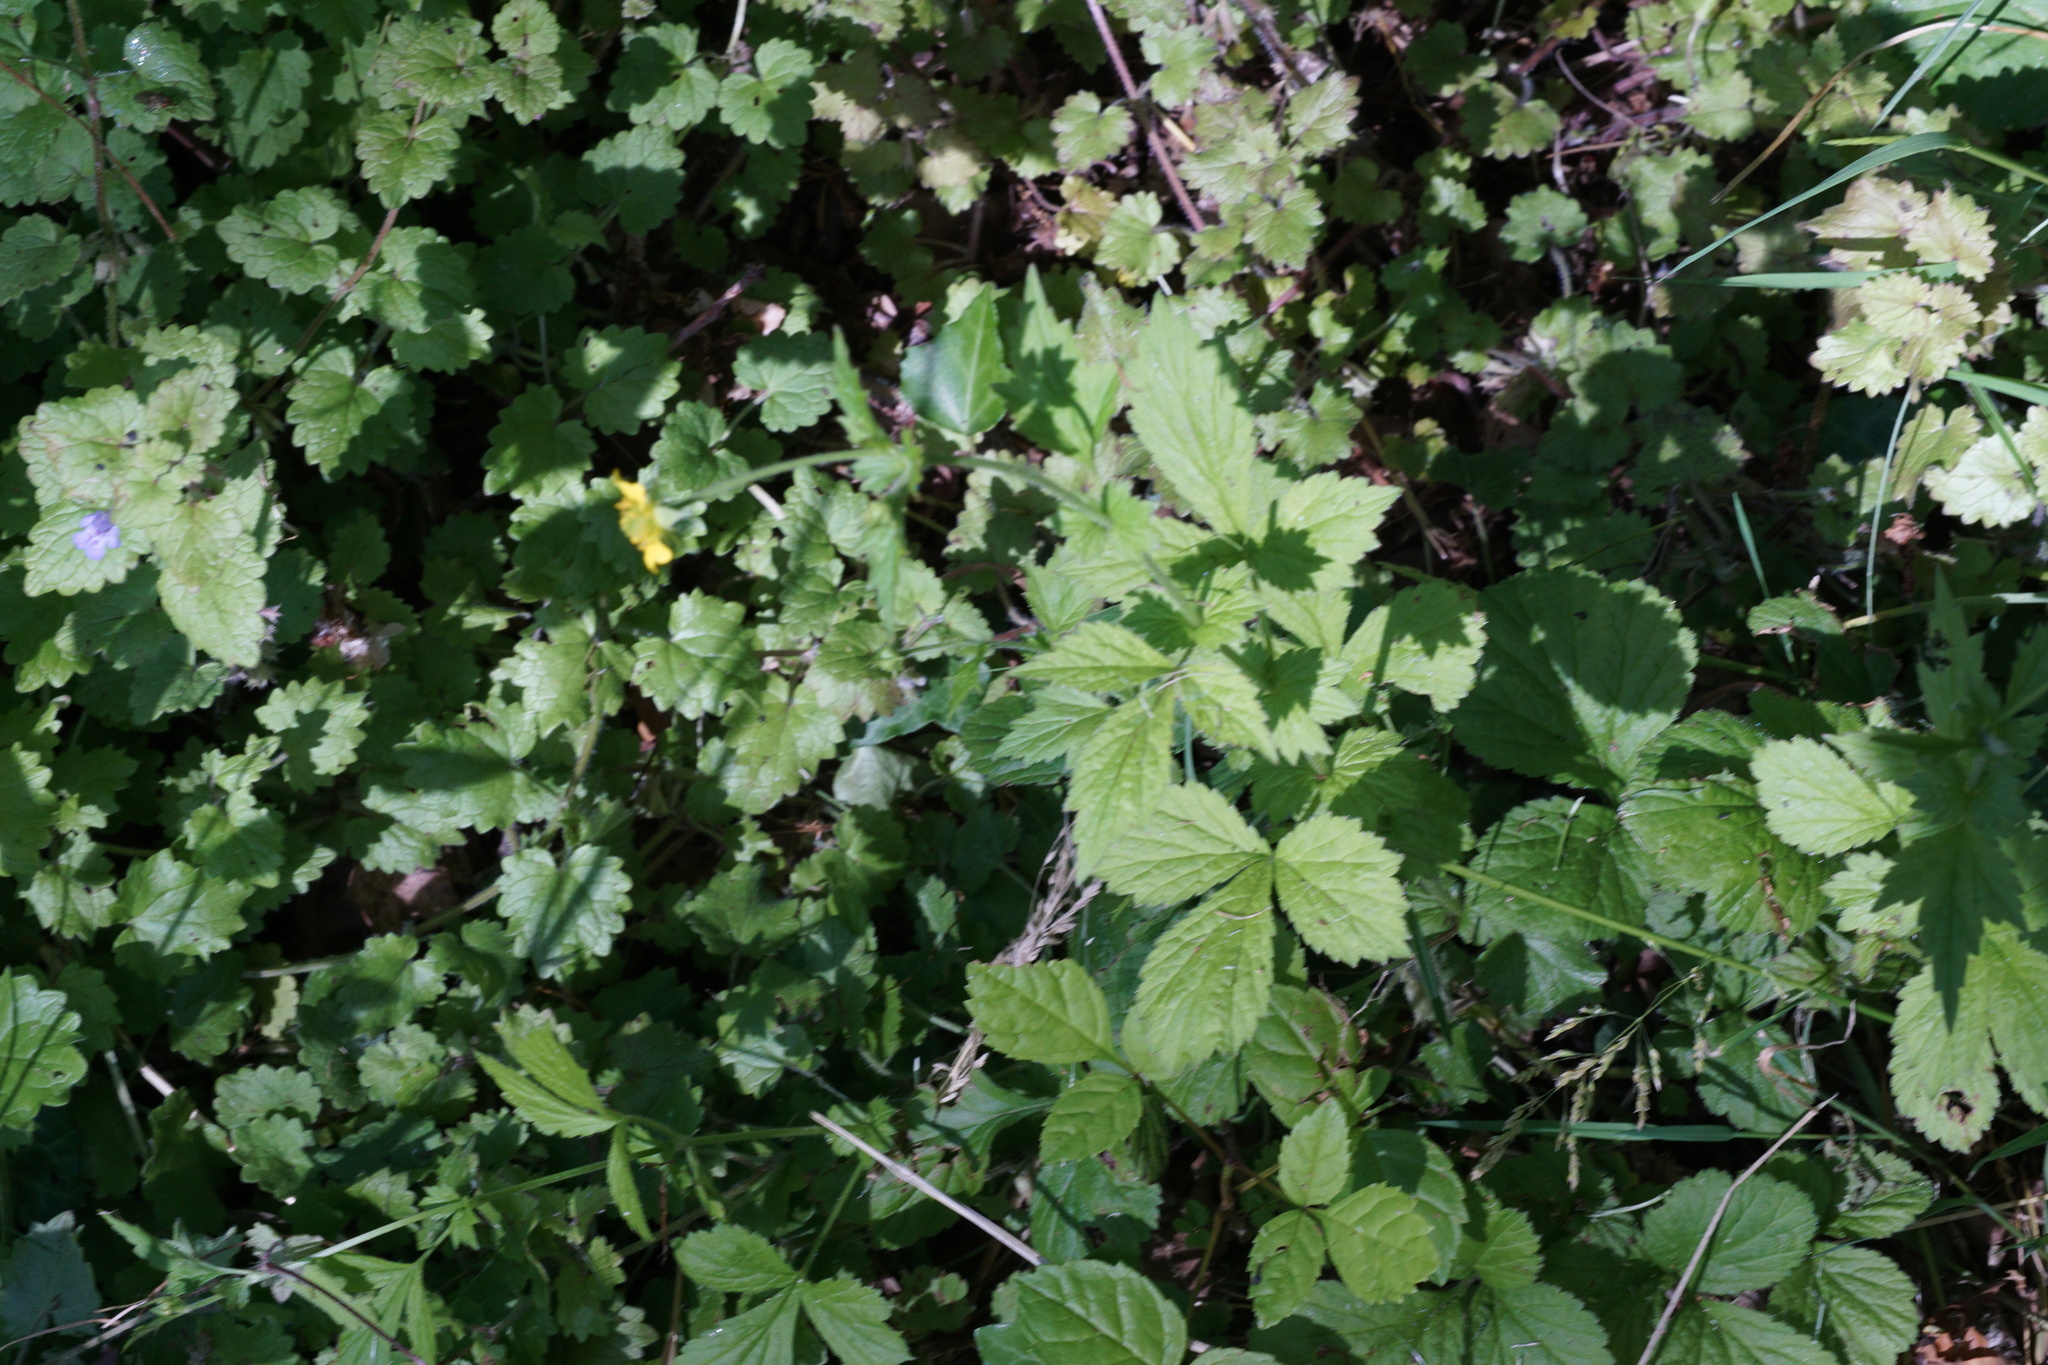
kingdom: Plantae
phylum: Tracheophyta
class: Magnoliopsida
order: Rosales
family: Rosaceae
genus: Geum
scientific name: Geum urbanum
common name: Wood avens
